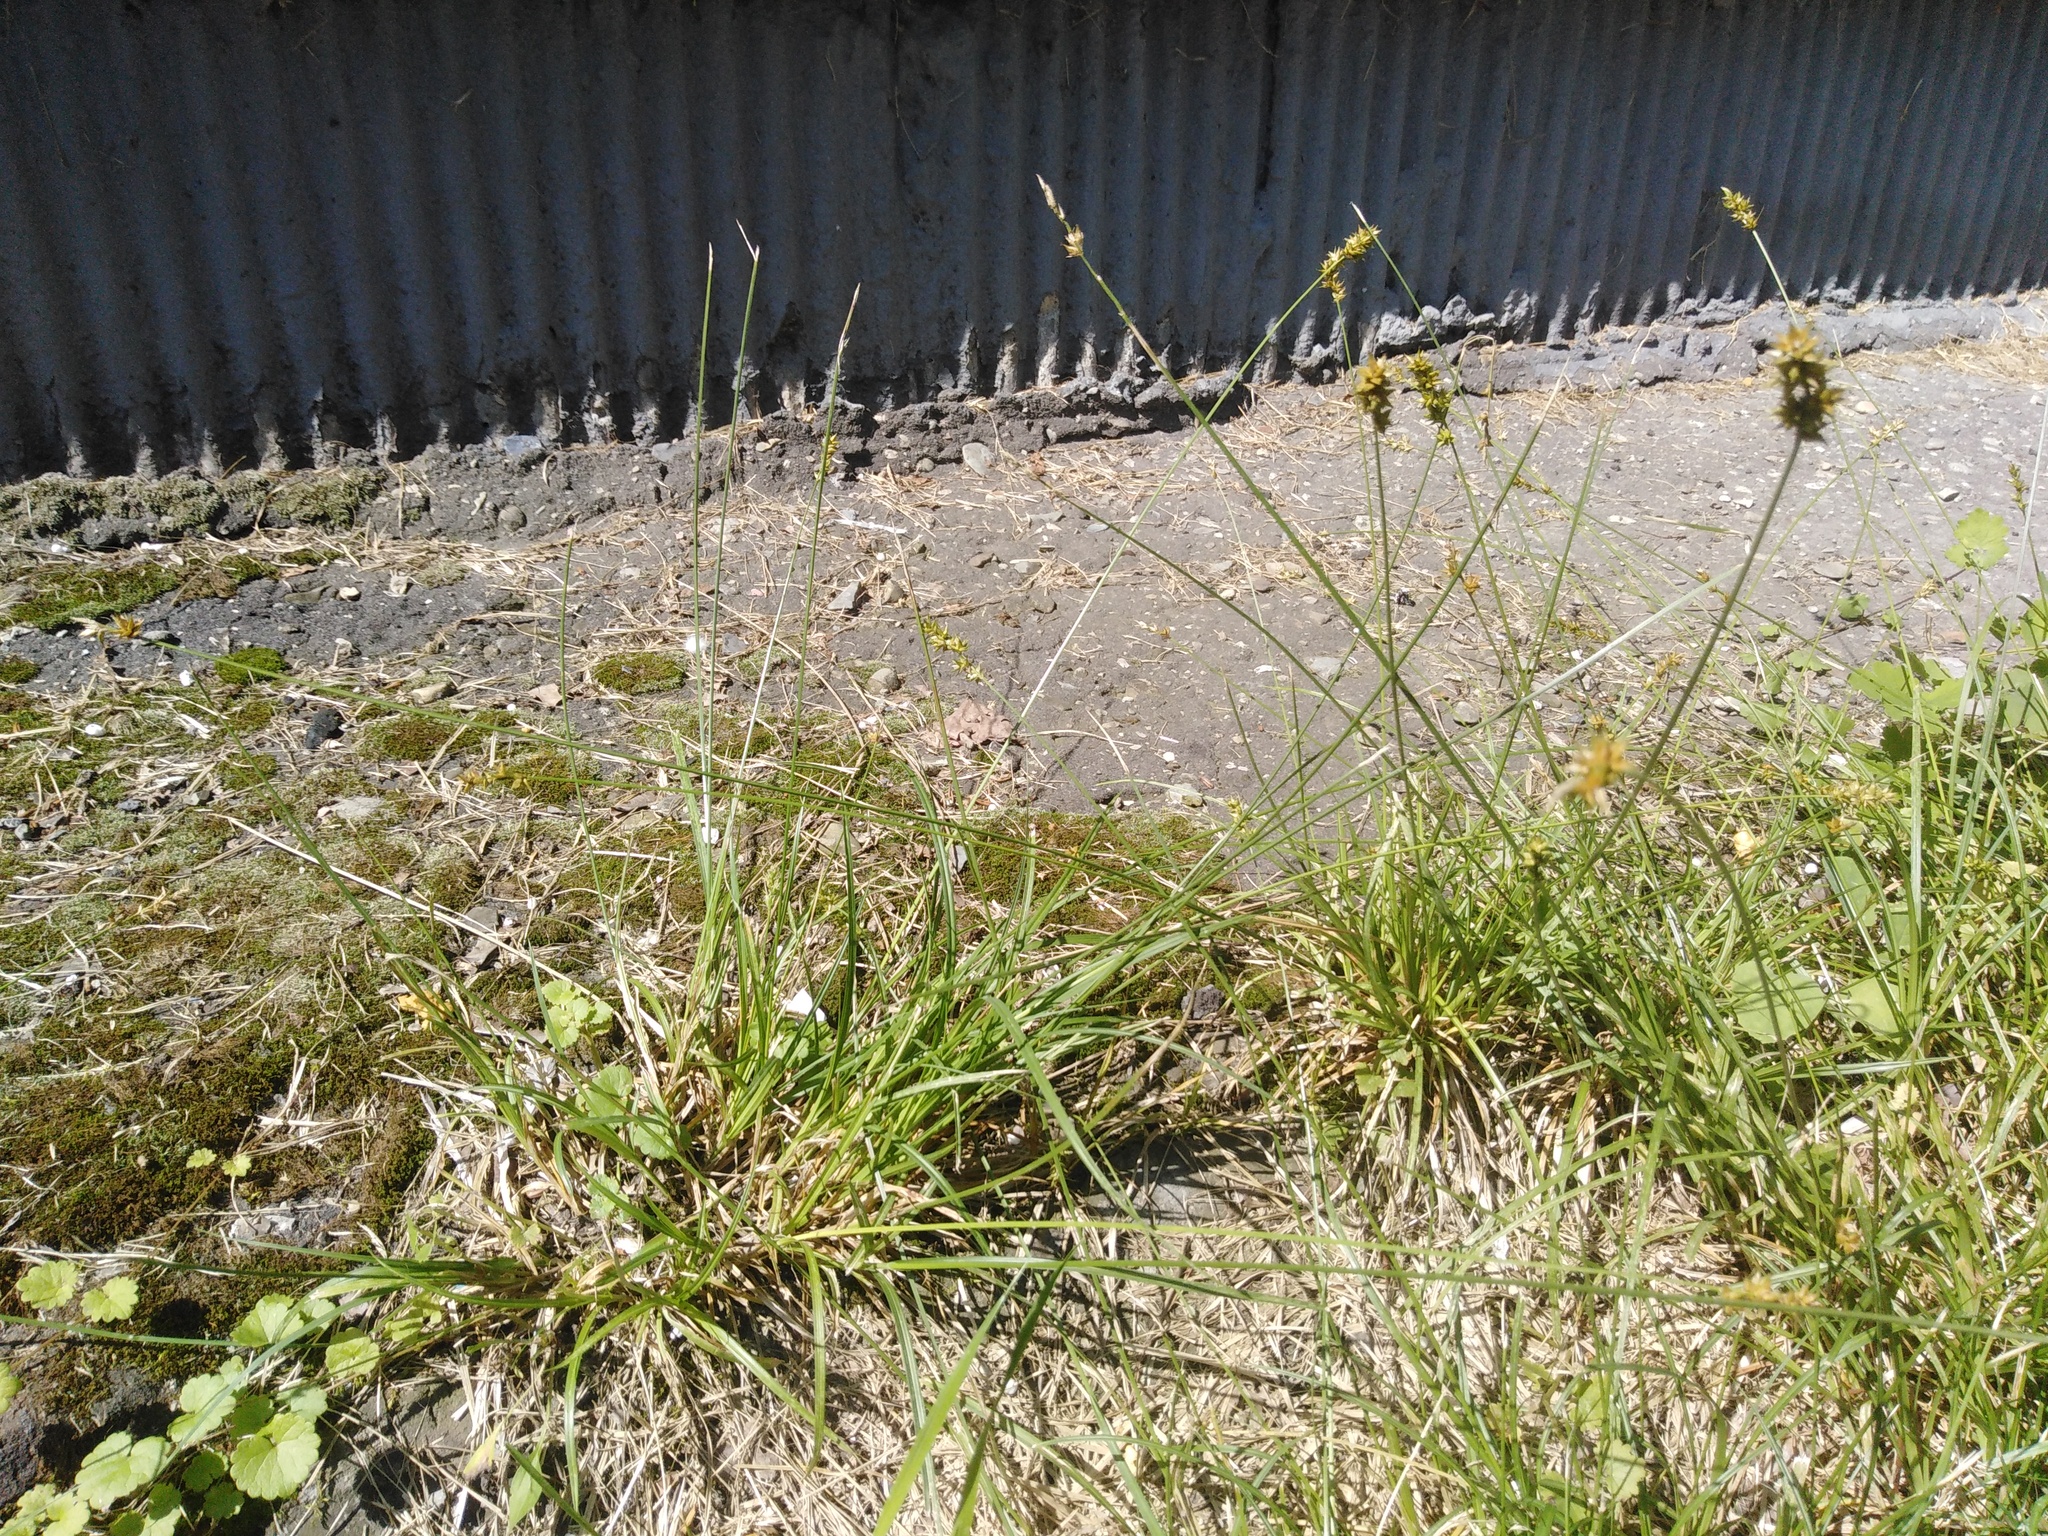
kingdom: Plantae
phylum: Tracheophyta
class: Liliopsida
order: Poales
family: Cyperaceae
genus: Carex
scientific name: Carex spicata
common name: Spiked sedge
